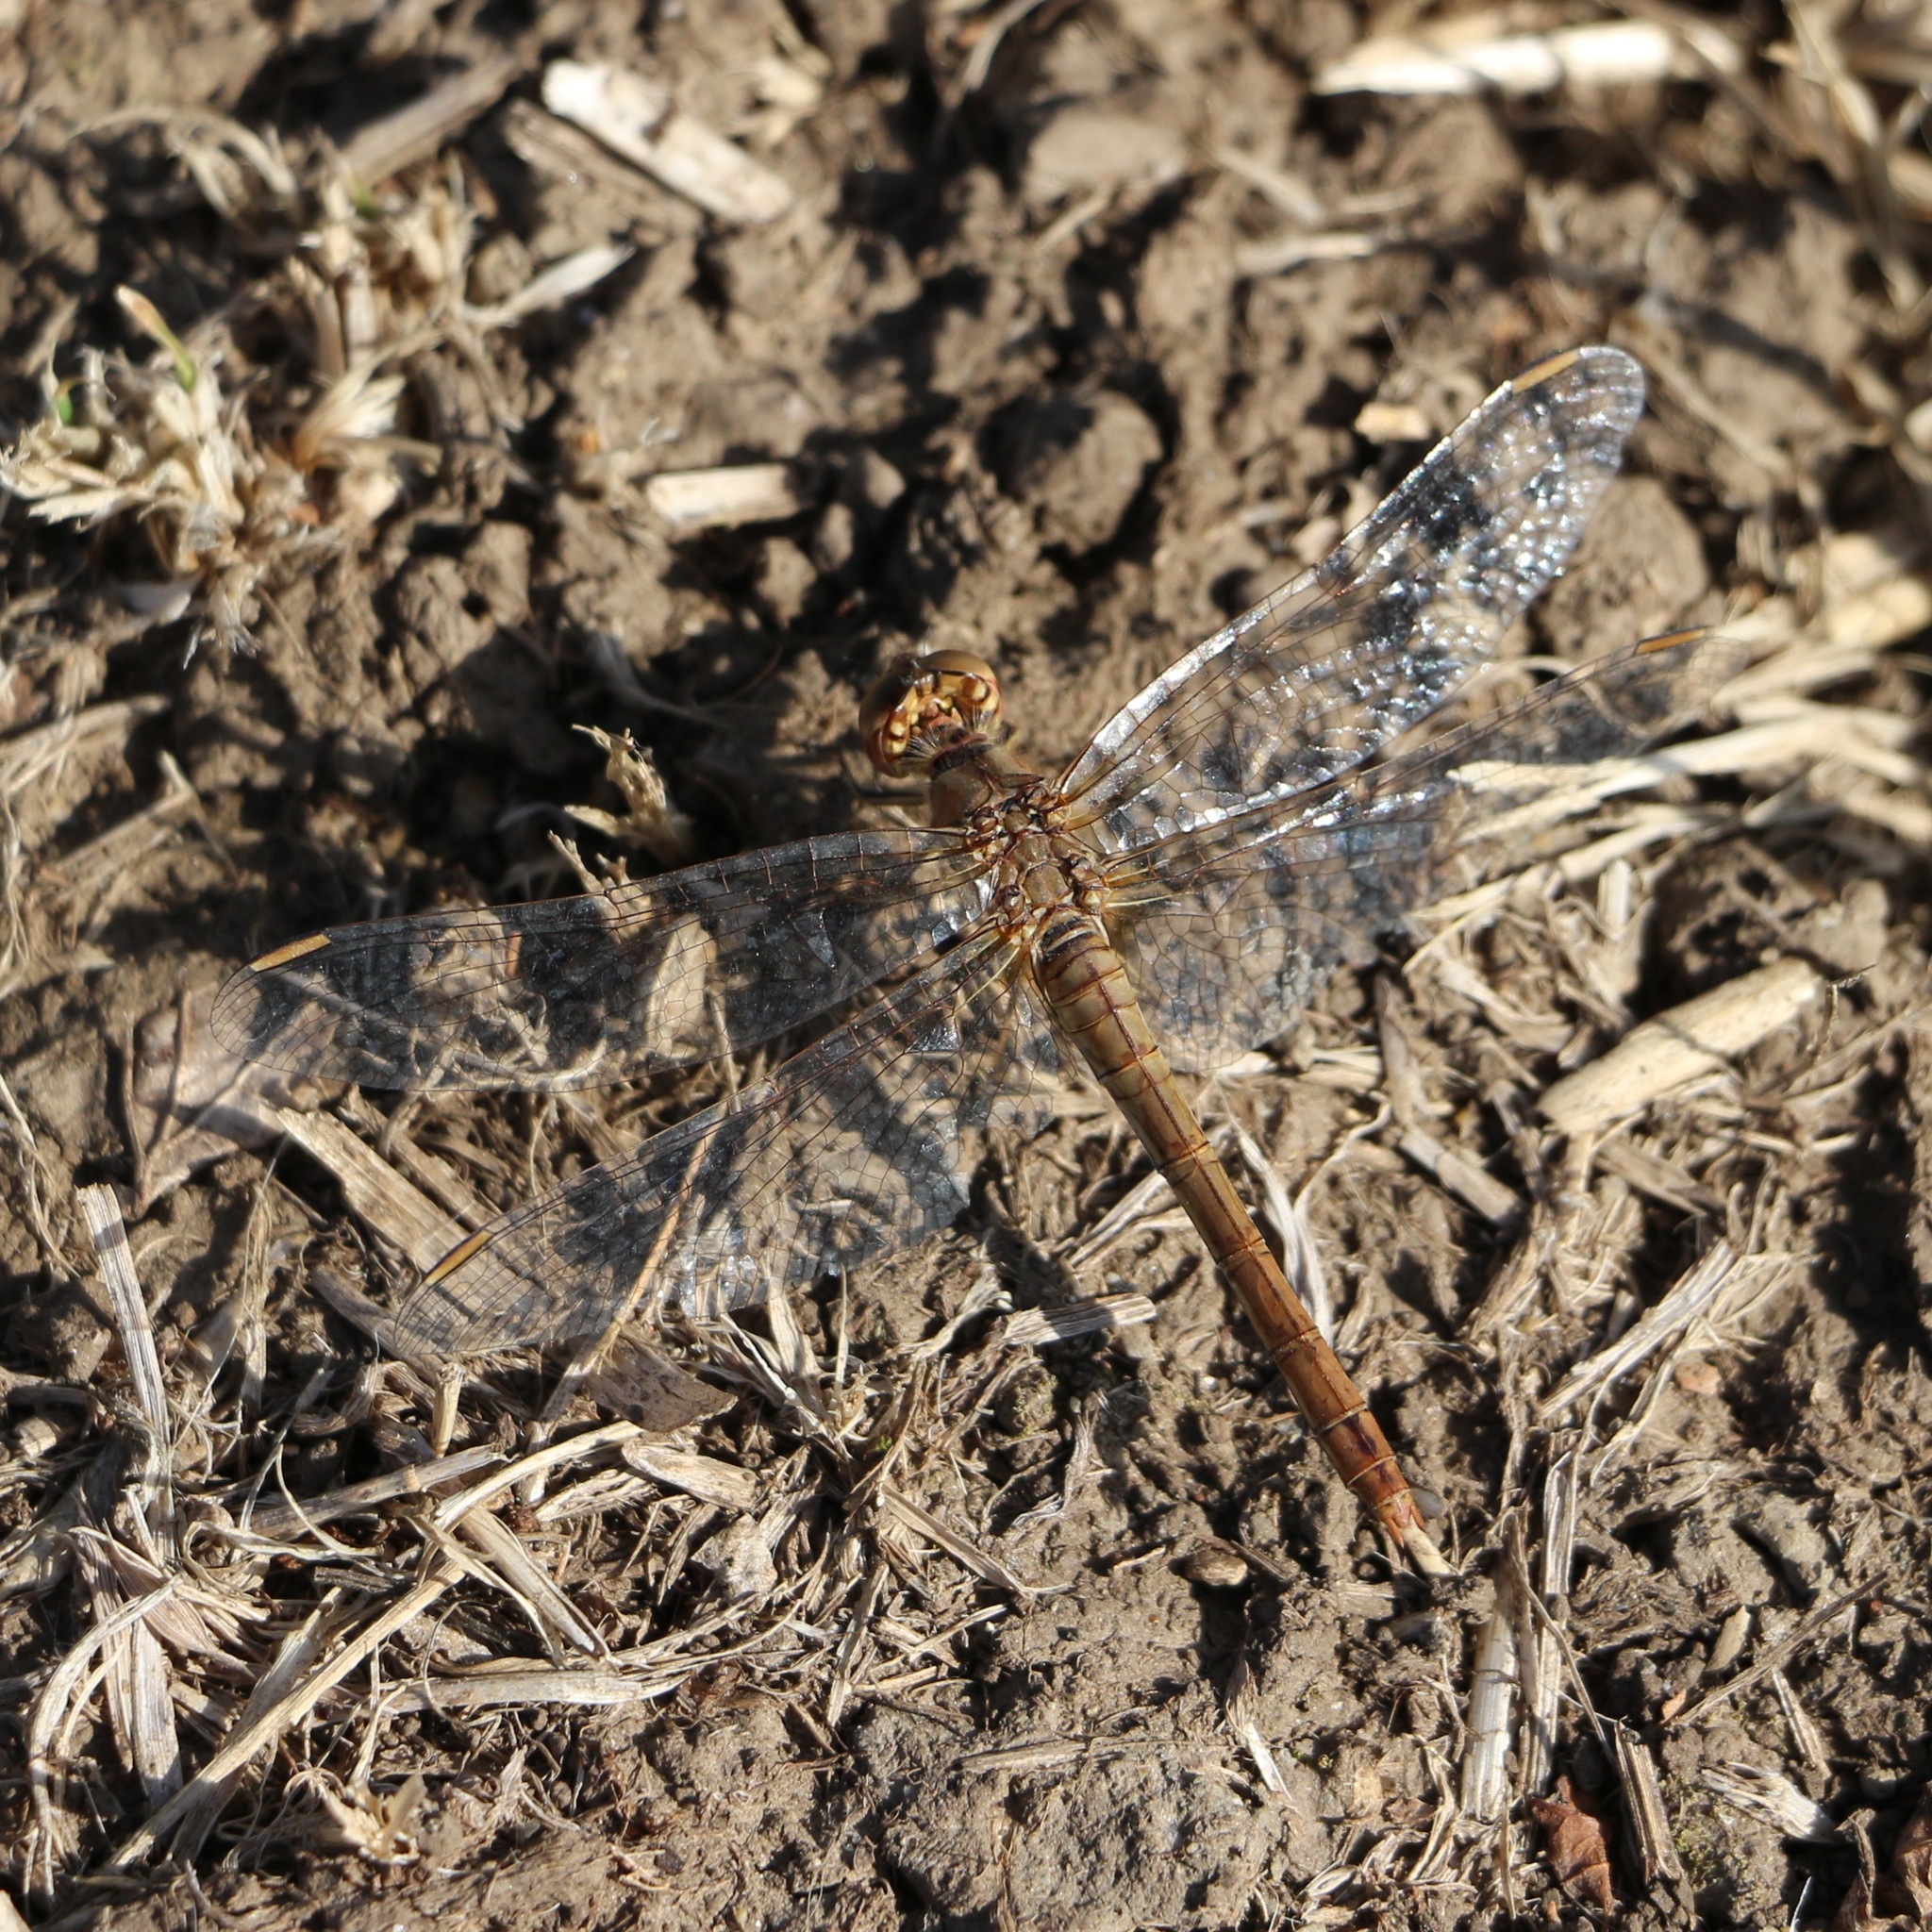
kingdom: Animalia
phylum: Arthropoda
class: Insecta
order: Odonata
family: Libellulidae
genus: Sympetrum
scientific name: Sympetrum meridionale
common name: Southern darter
